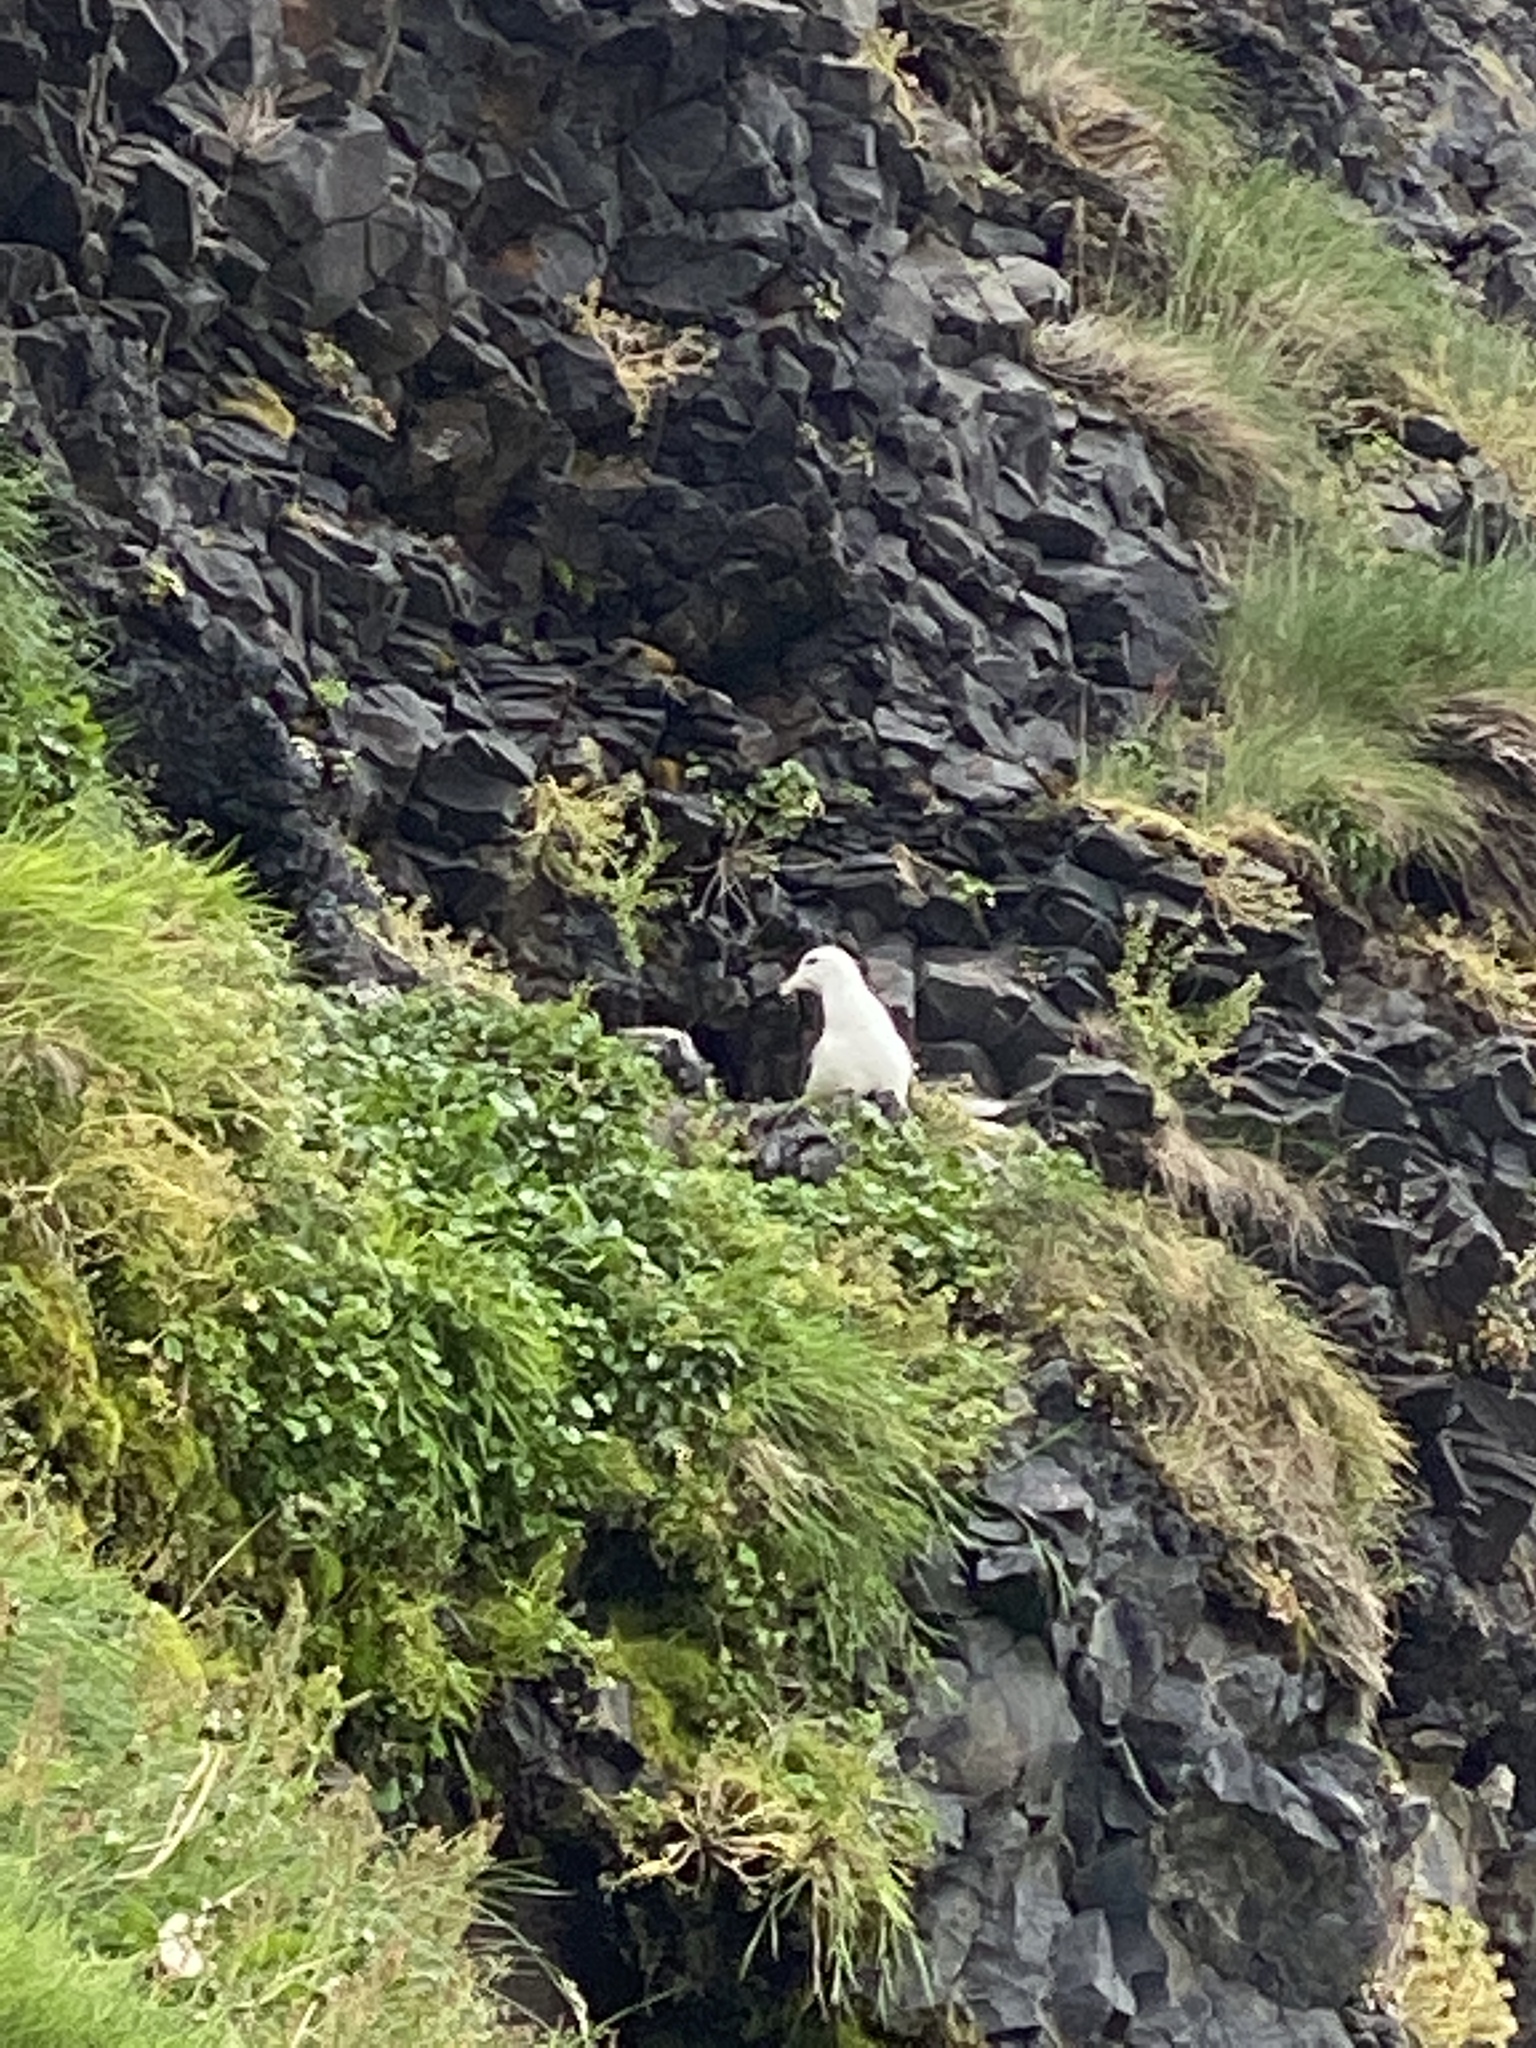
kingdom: Animalia
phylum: Chordata
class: Aves
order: Procellariiformes
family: Procellariidae
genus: Fulmarus
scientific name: Fulmarus glacialis
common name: Northern fulmar
